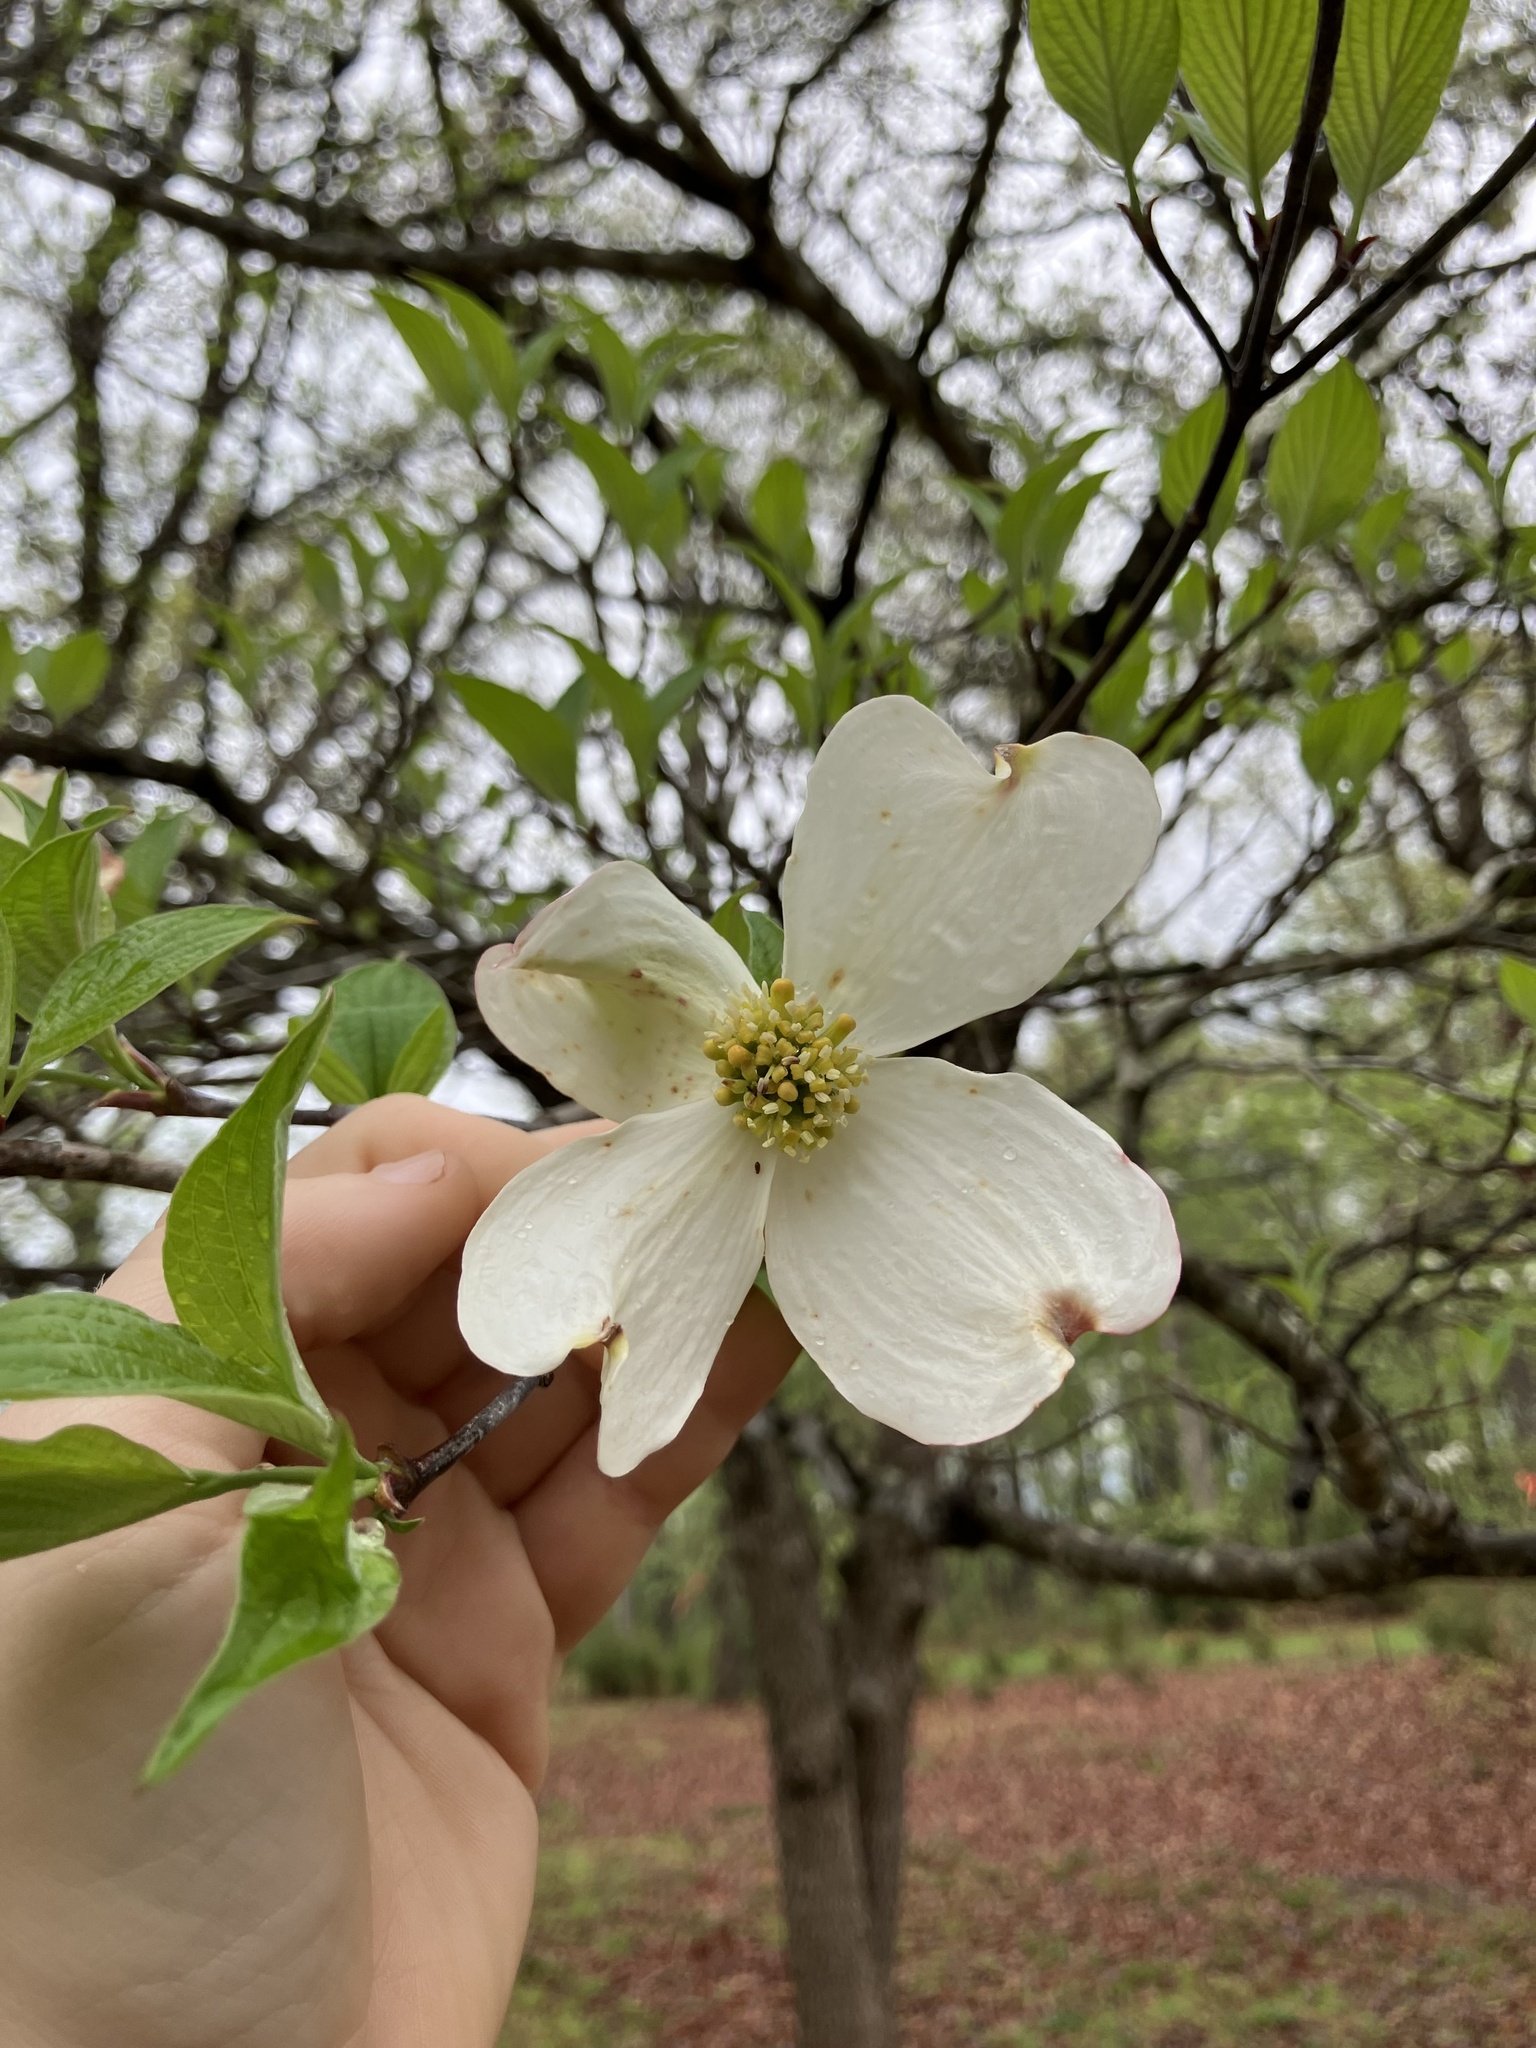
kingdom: Plantae
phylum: Tracheophyta
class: Magnoliopsida
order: Cornales
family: Cornaceae
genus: Cornus
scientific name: Cornus florida
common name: Flowering dogwood
